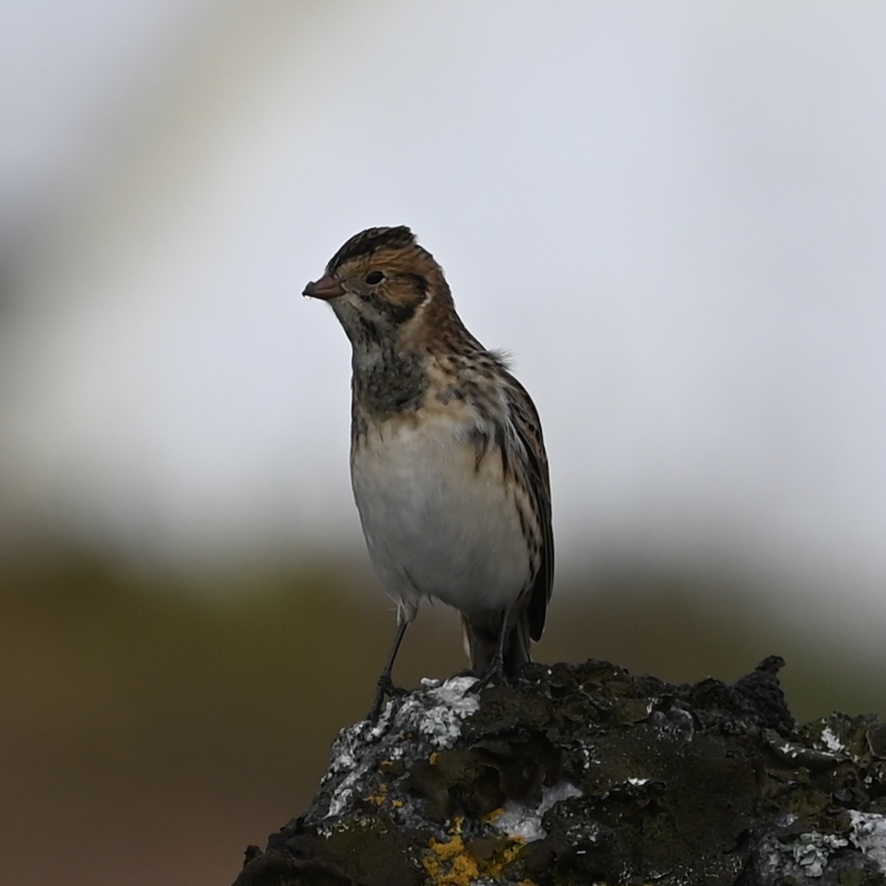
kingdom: Animalia
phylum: Chordata
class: Aves
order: Passeriformes
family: Calcariidae
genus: Calcarius
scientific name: Calcarius lapponicus
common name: Lapland longspur
